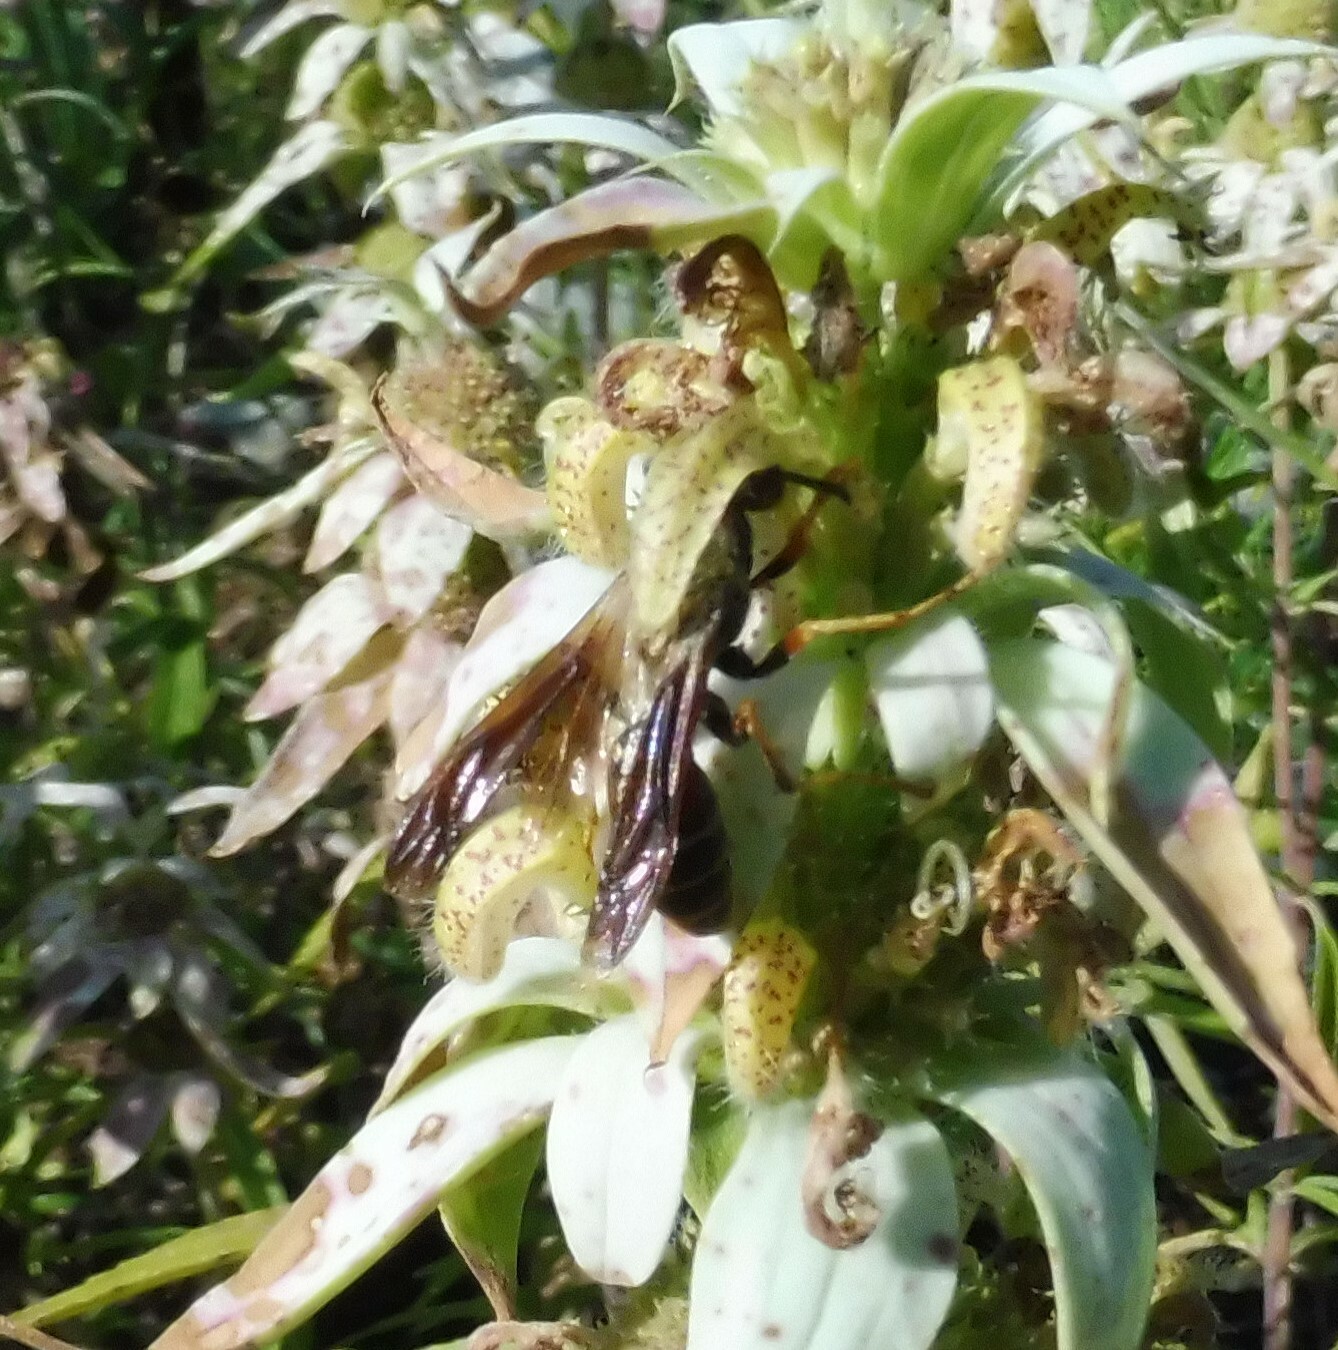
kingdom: Animalia
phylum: Arthropoda
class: Insecta
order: Hymenoptera
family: Eumenidae
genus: Polistes
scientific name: Polistes fuscatus
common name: Dark paper wasp
